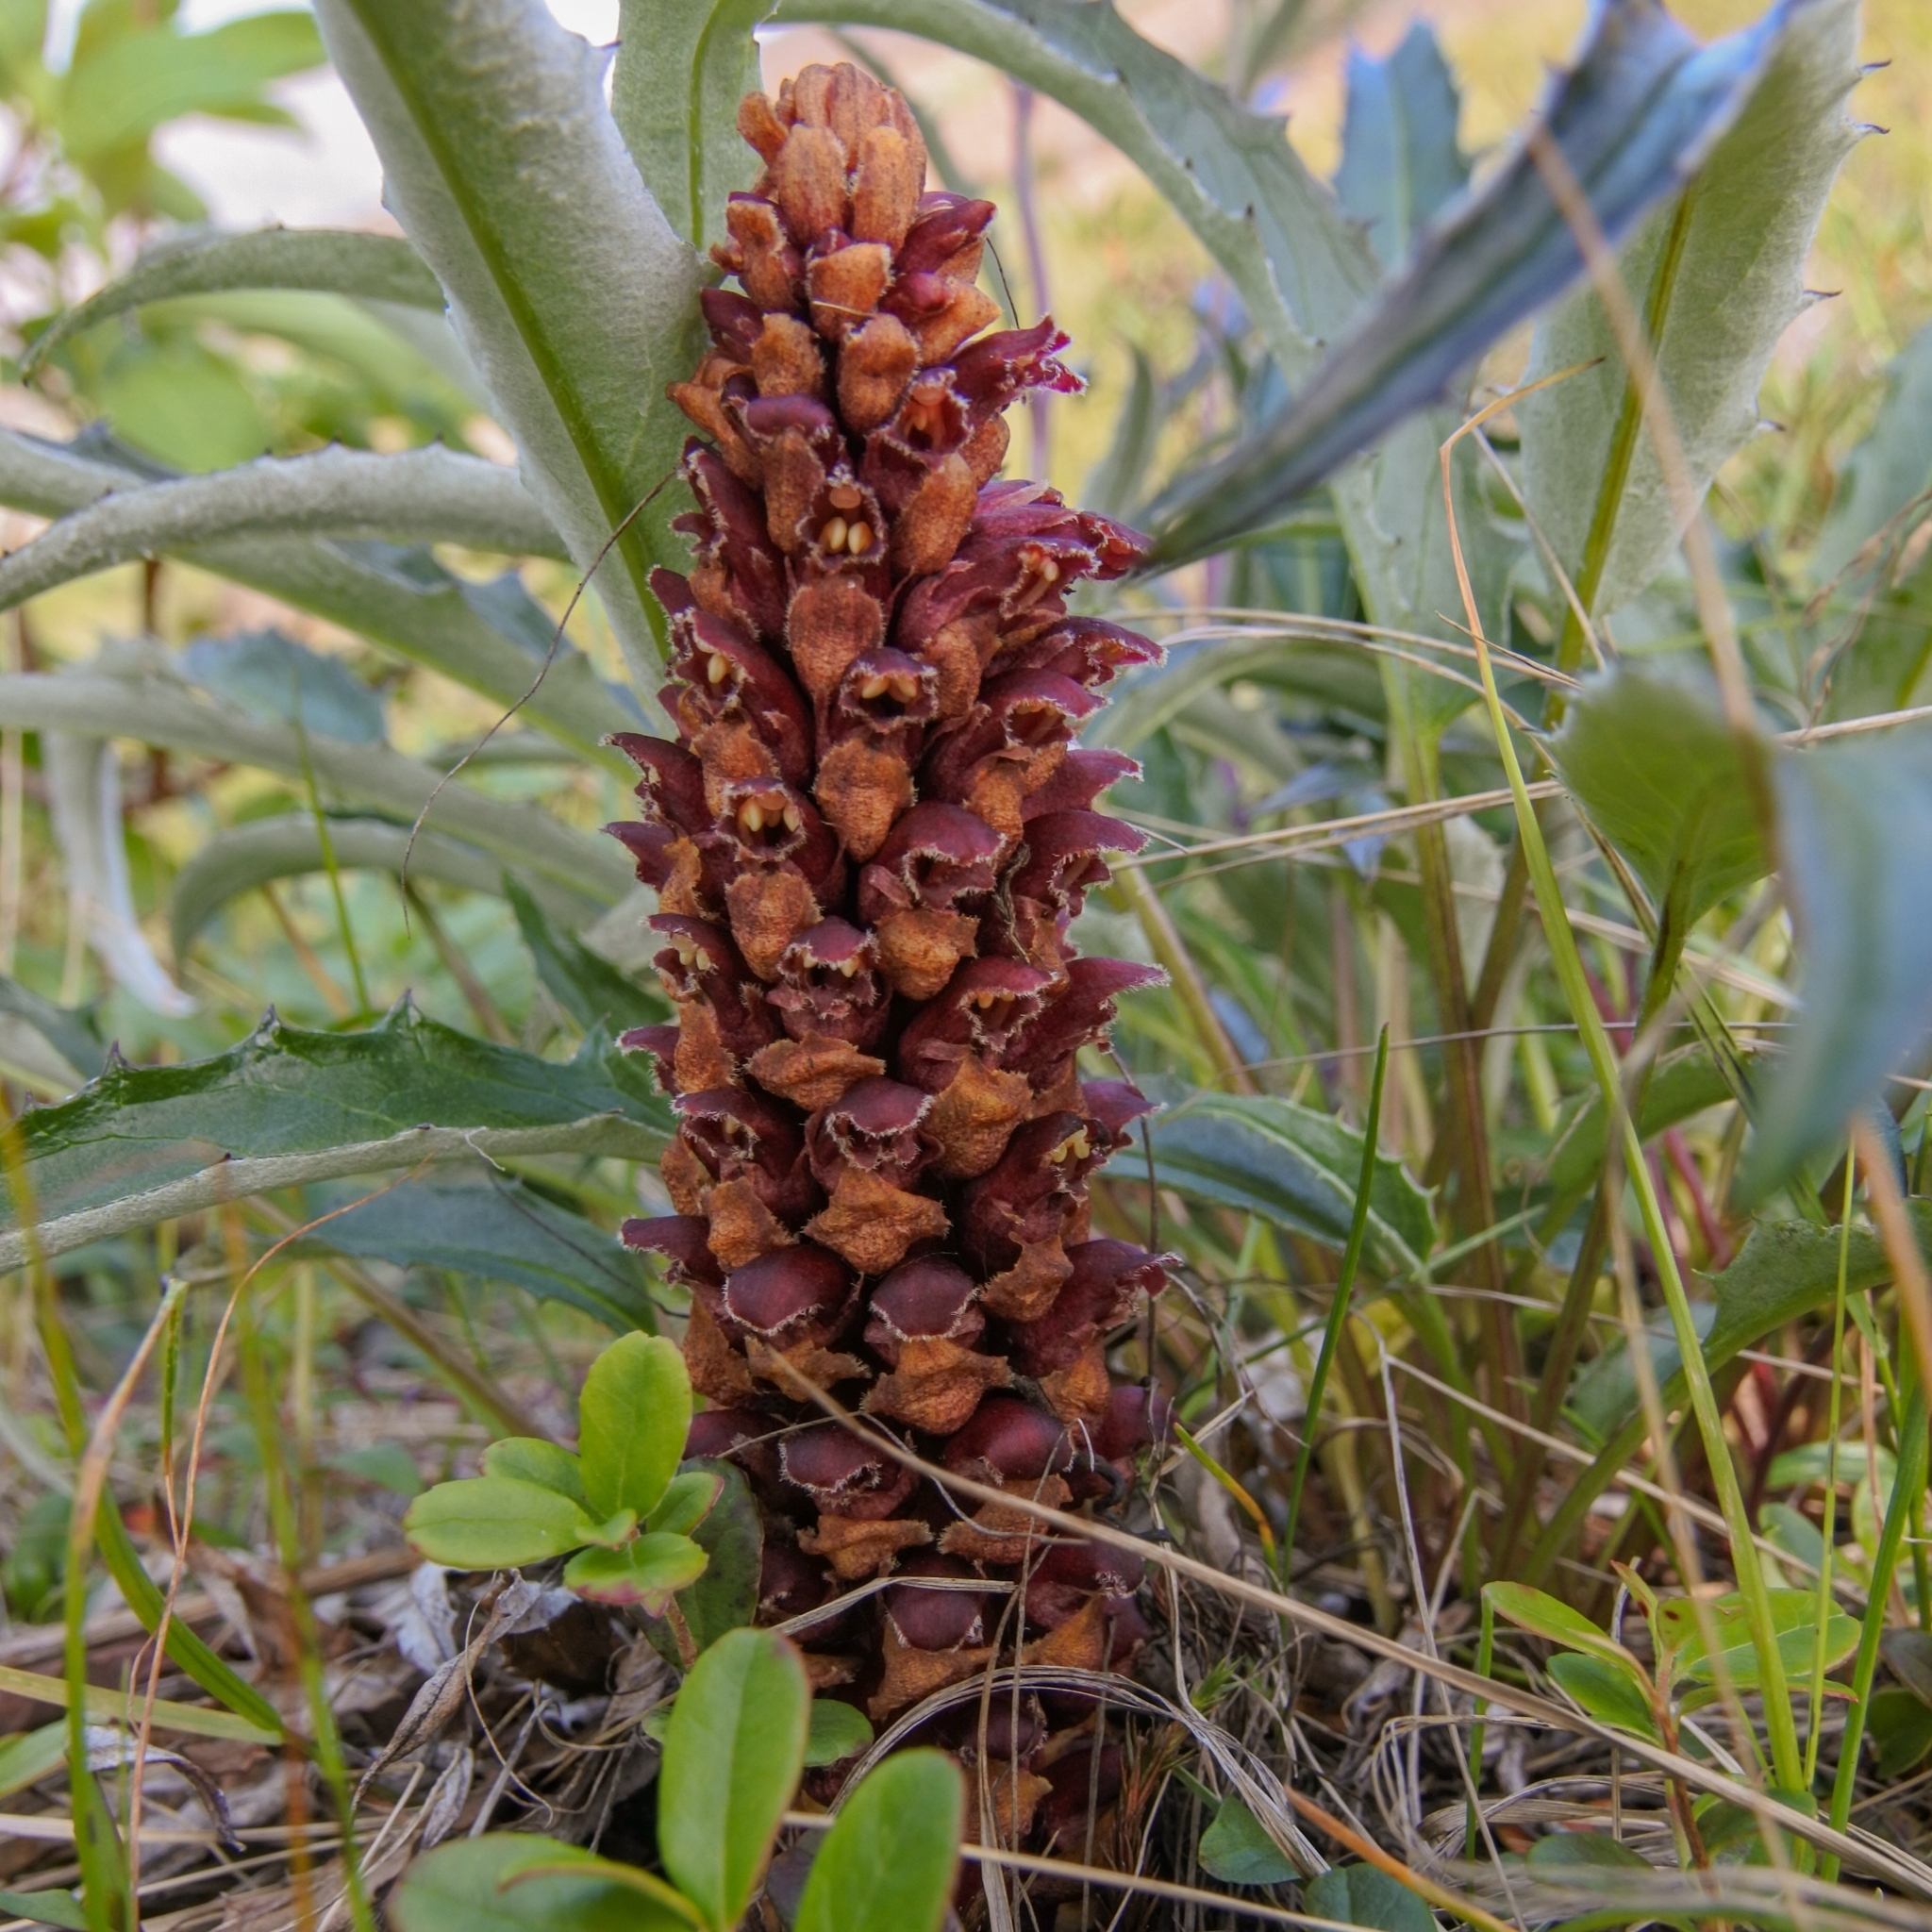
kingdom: Plantae
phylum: Tracheophyta
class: Magnoliopsida
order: Lamiales
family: Orobanchaceae
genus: Boschniakia
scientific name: Boschniakia rossica
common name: Poque
